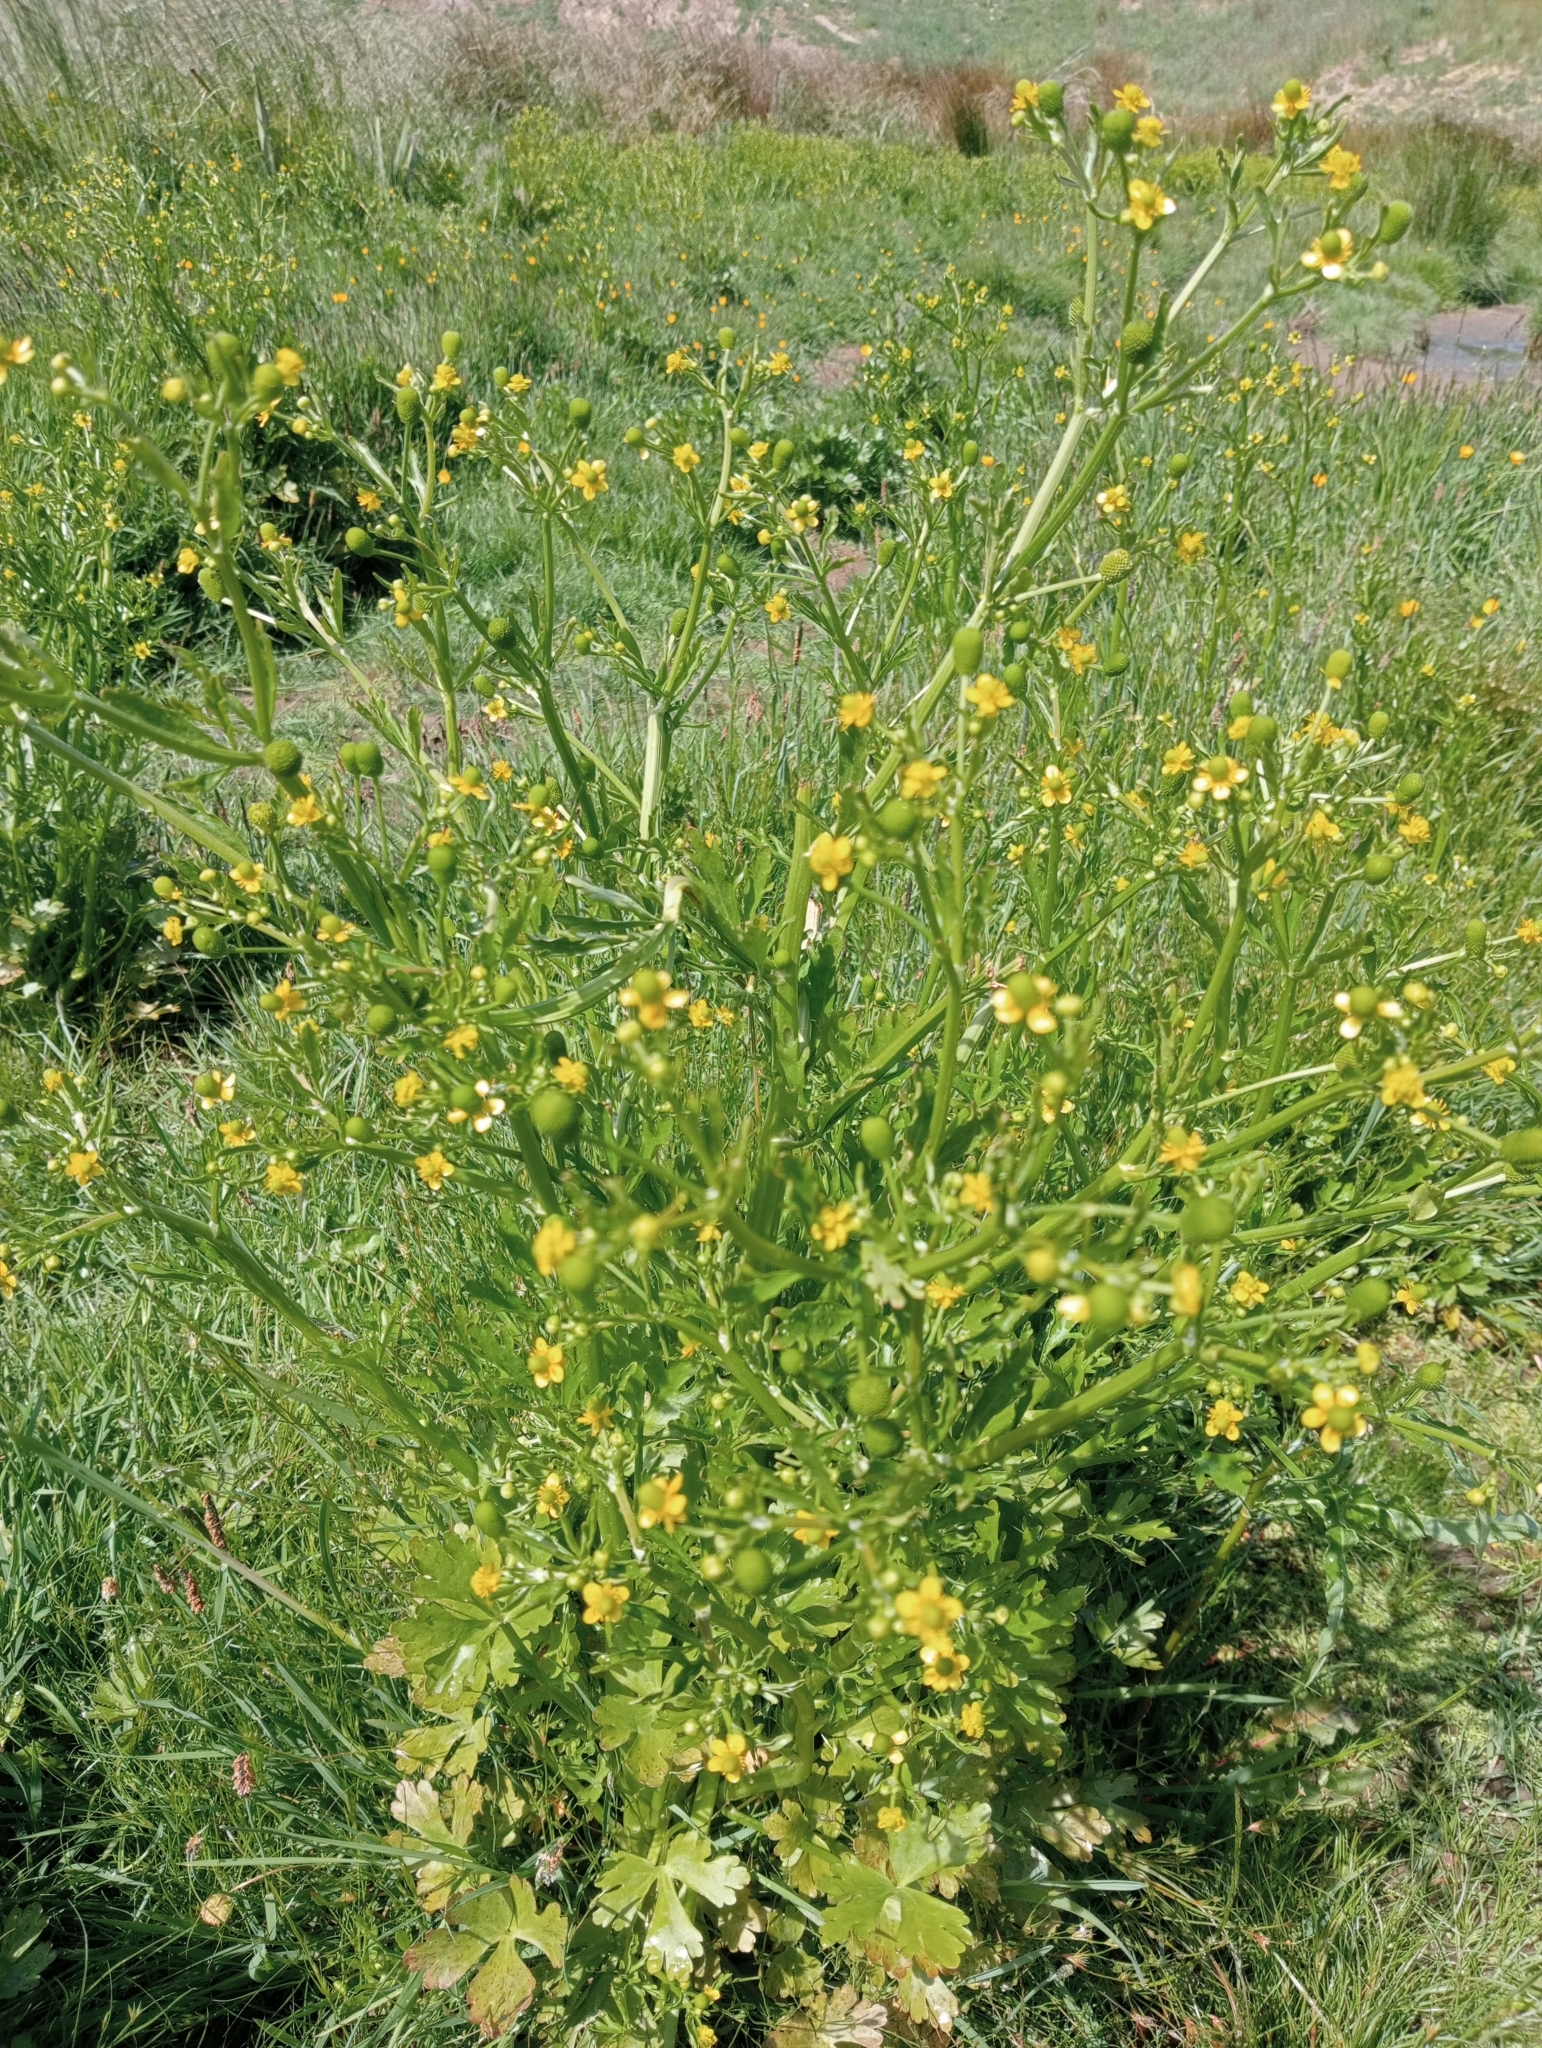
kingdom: Plantae
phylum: Tracheophyta
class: Magnoliopsida
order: Ranunculales
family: Ranunculaceae
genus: Ranunculus
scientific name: Ranunculus sceleratus
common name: Celery-leaved buttercup
